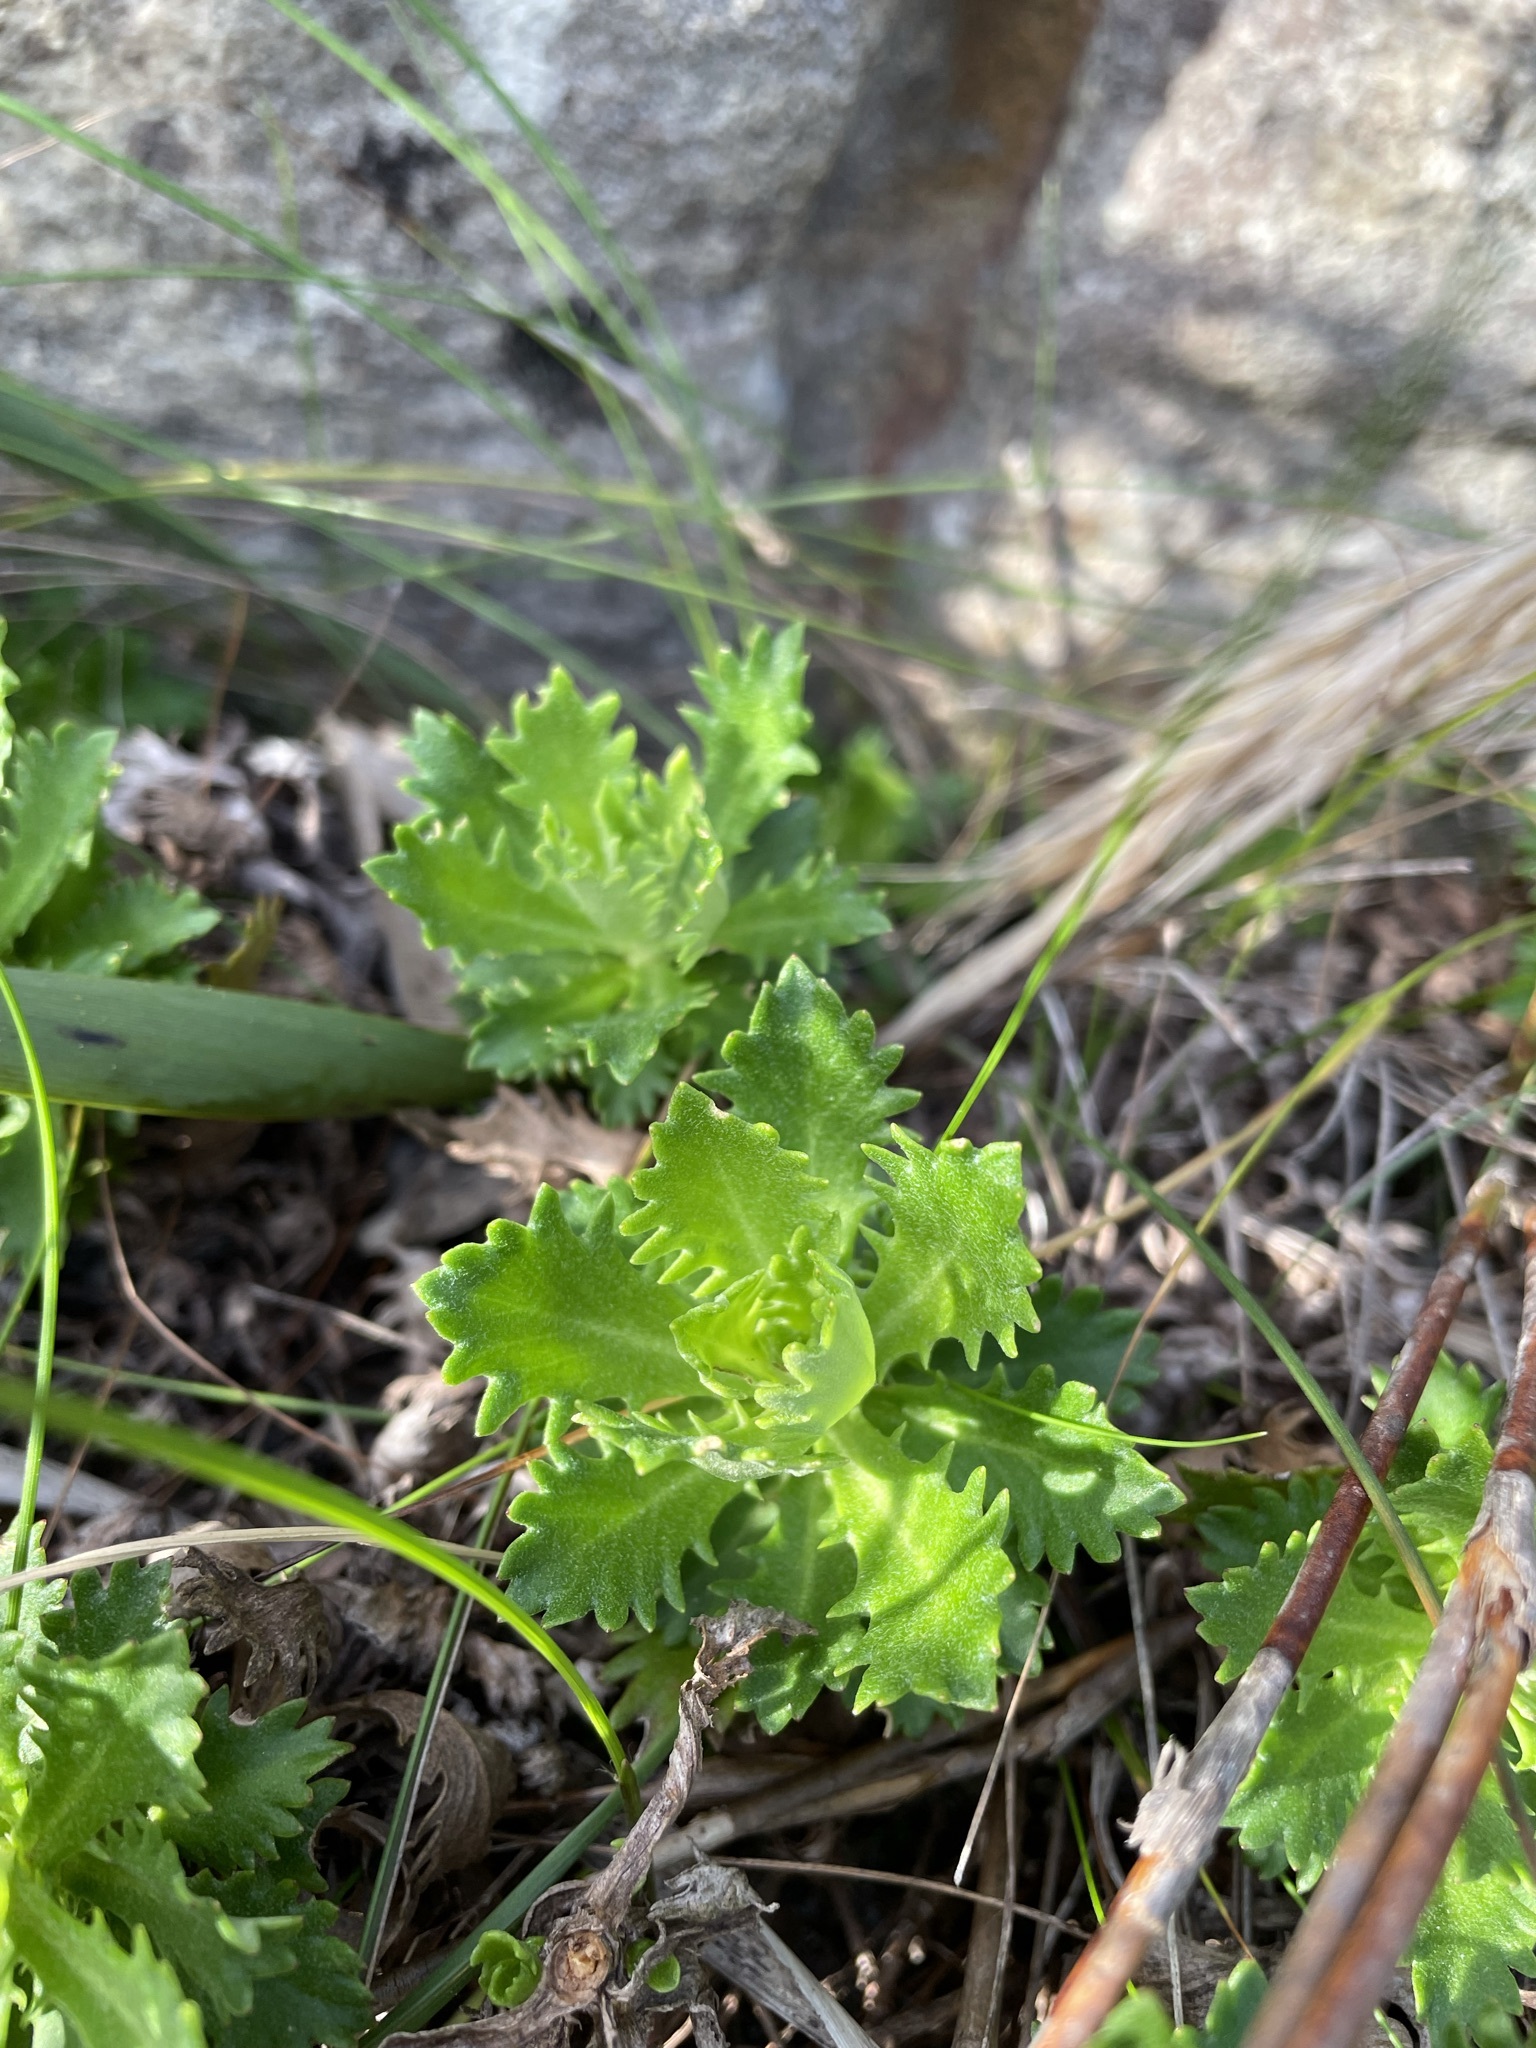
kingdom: Plantae
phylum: Tracheophyta
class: Magnoliopsida
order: Asterales
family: Asteraceae
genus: Osmitopsis
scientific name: Osmitopsis dentata
